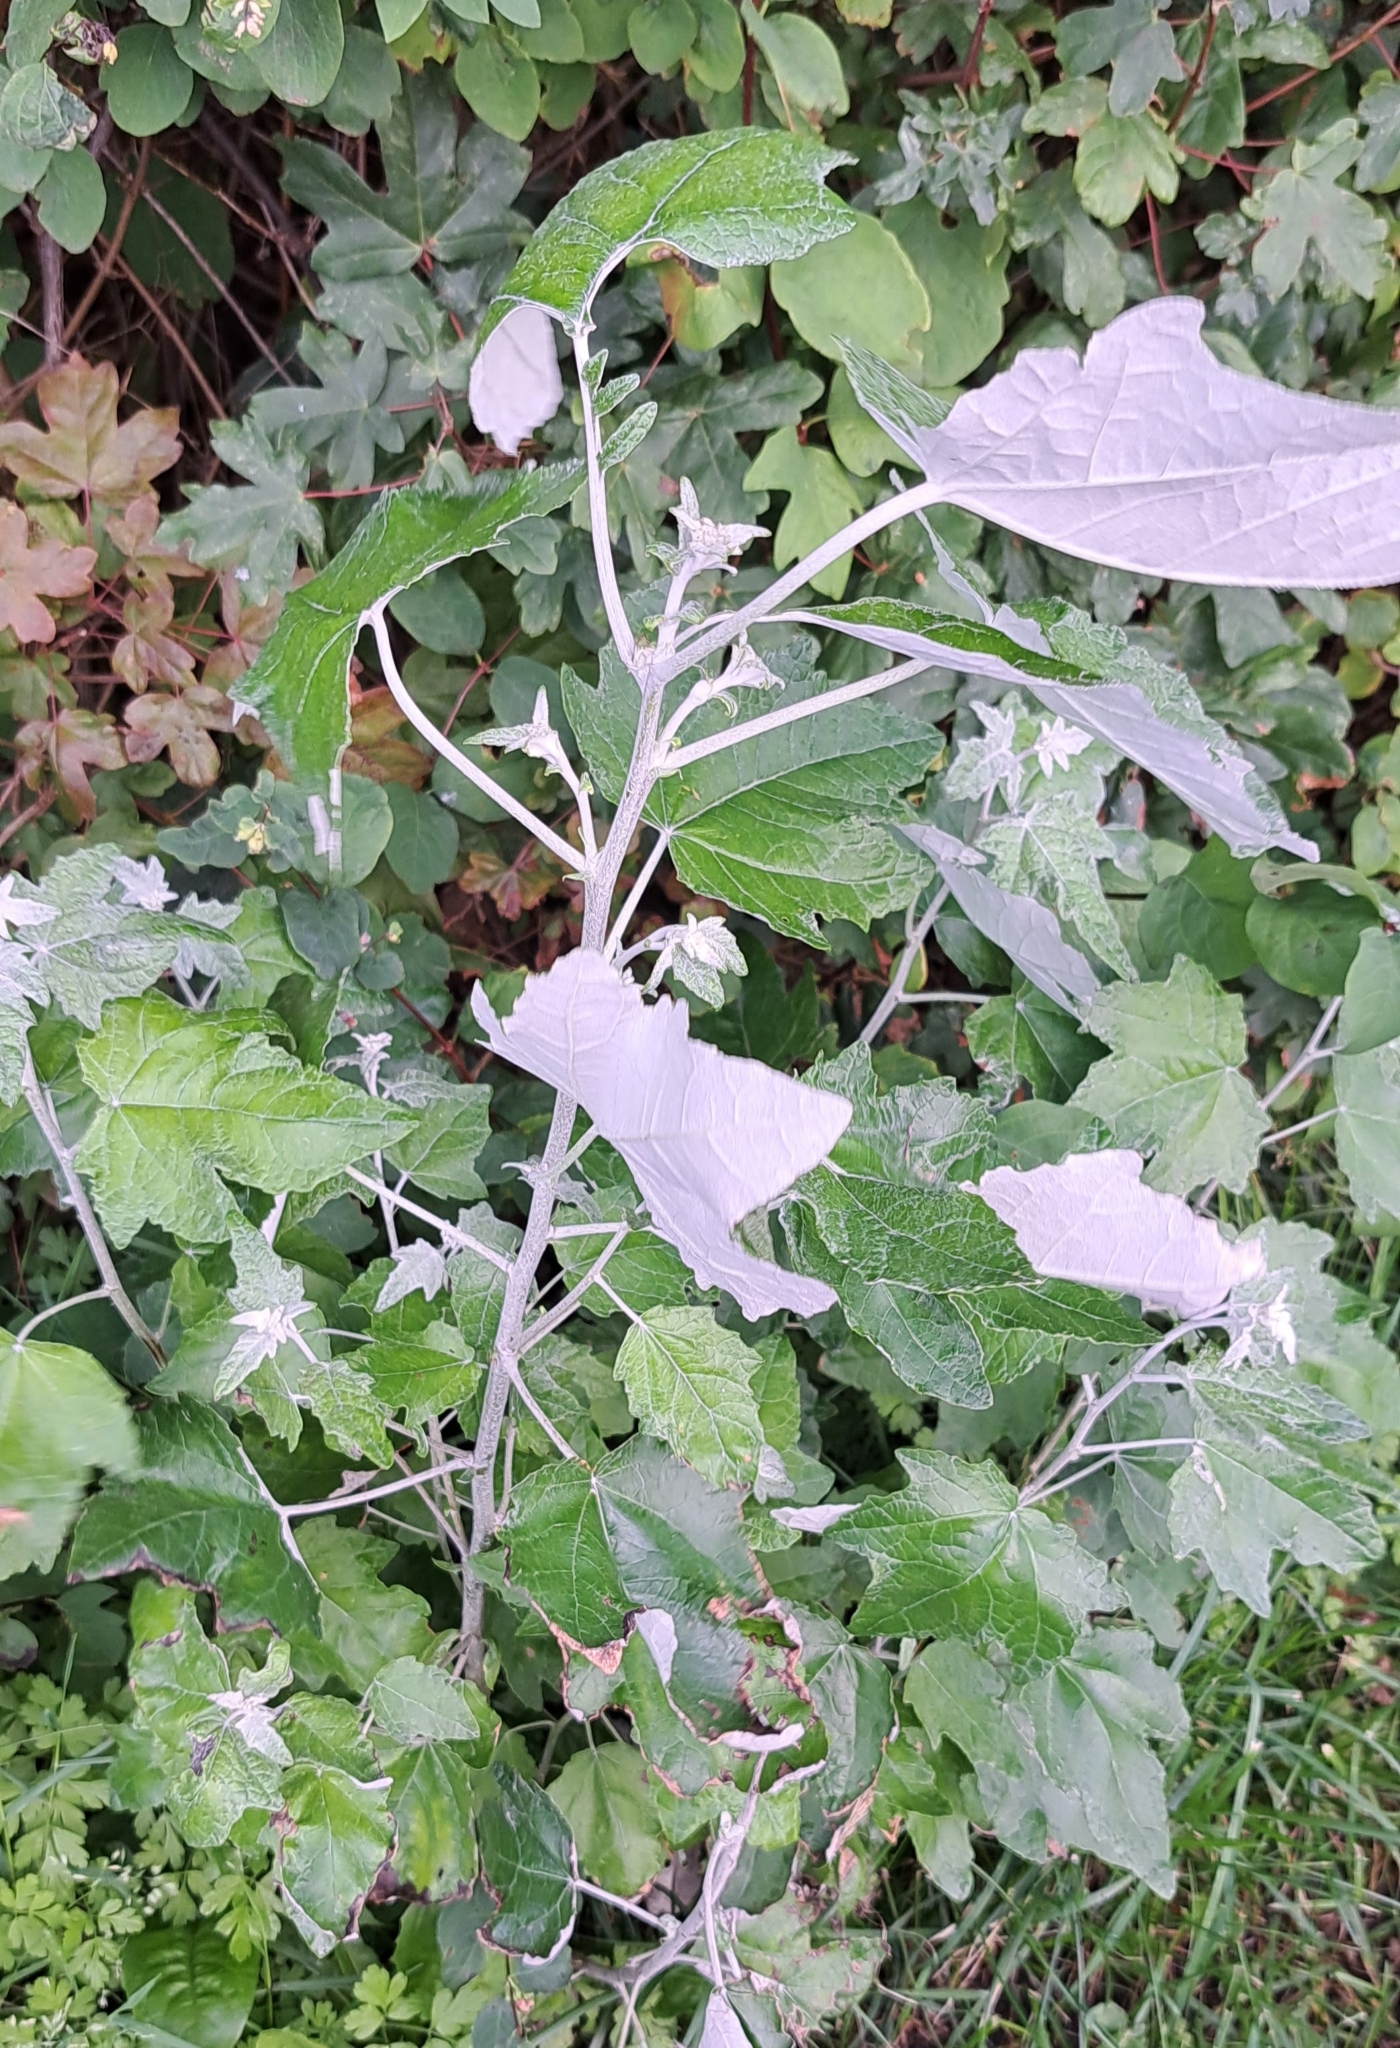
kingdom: Plantae
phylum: Tracheophyta
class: Magnoliopsida
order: Malpighiales
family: Salicaceae
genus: Populus
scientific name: Populus alba
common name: White poplar
